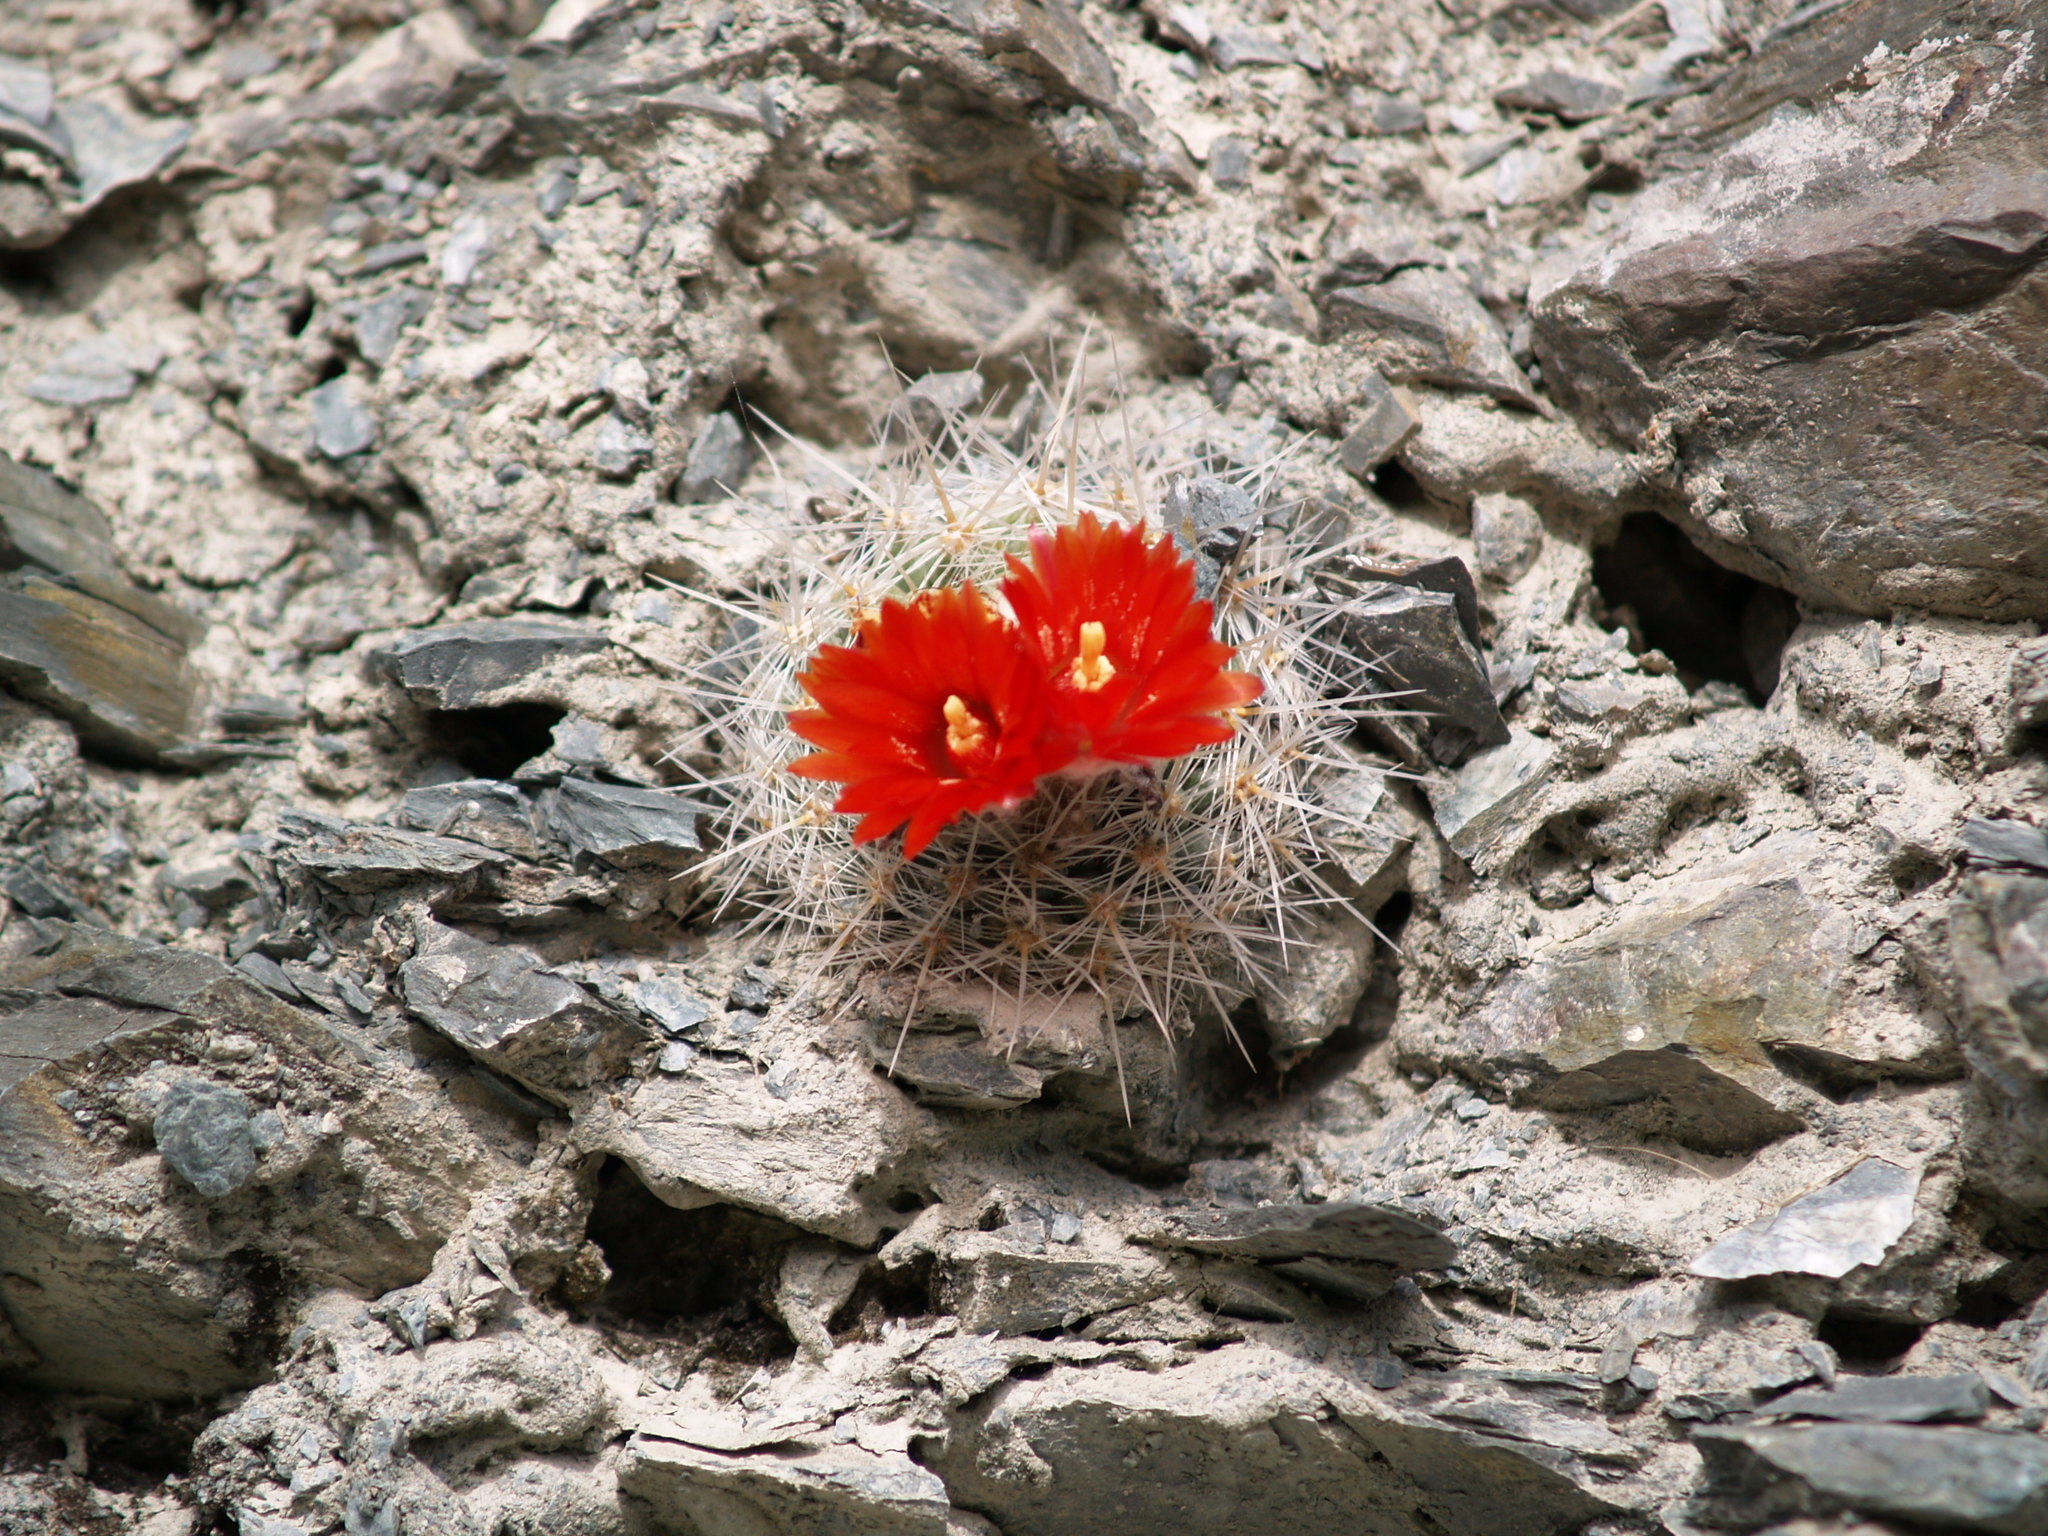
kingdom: Plantae
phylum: Tracheophyta
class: Magnoliopsida
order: Caryophyllales
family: Cactaceae
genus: Parodia
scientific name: Parodia microsperma
